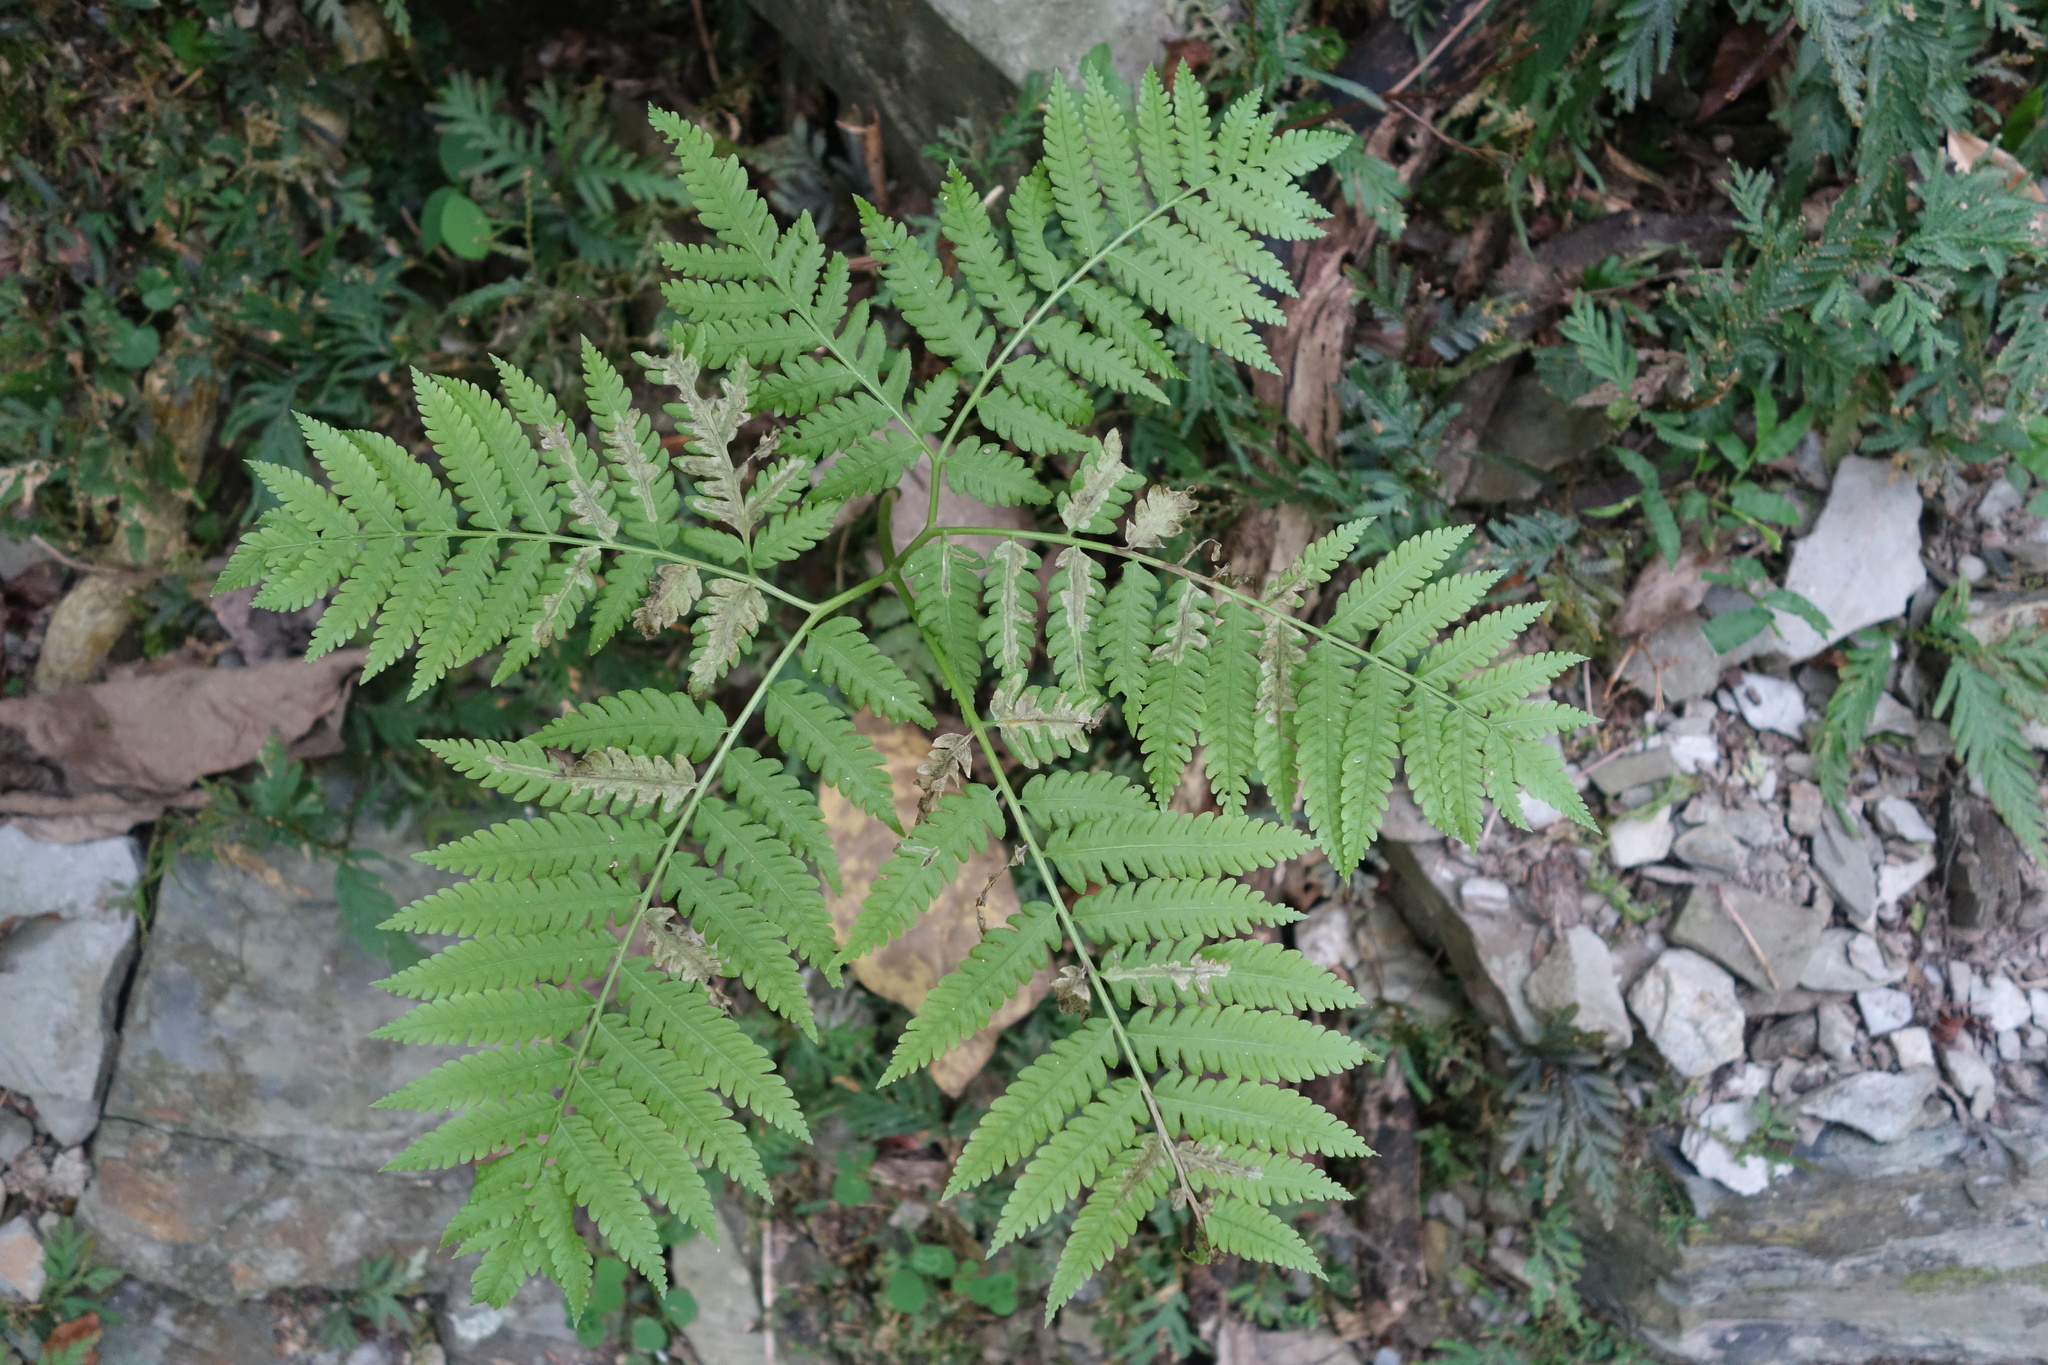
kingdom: Plantae
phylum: Tracheophyta
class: Polypodiopsida
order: Polypodiales
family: Pteridaceae
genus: Pteris
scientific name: Pteris wallichiana
